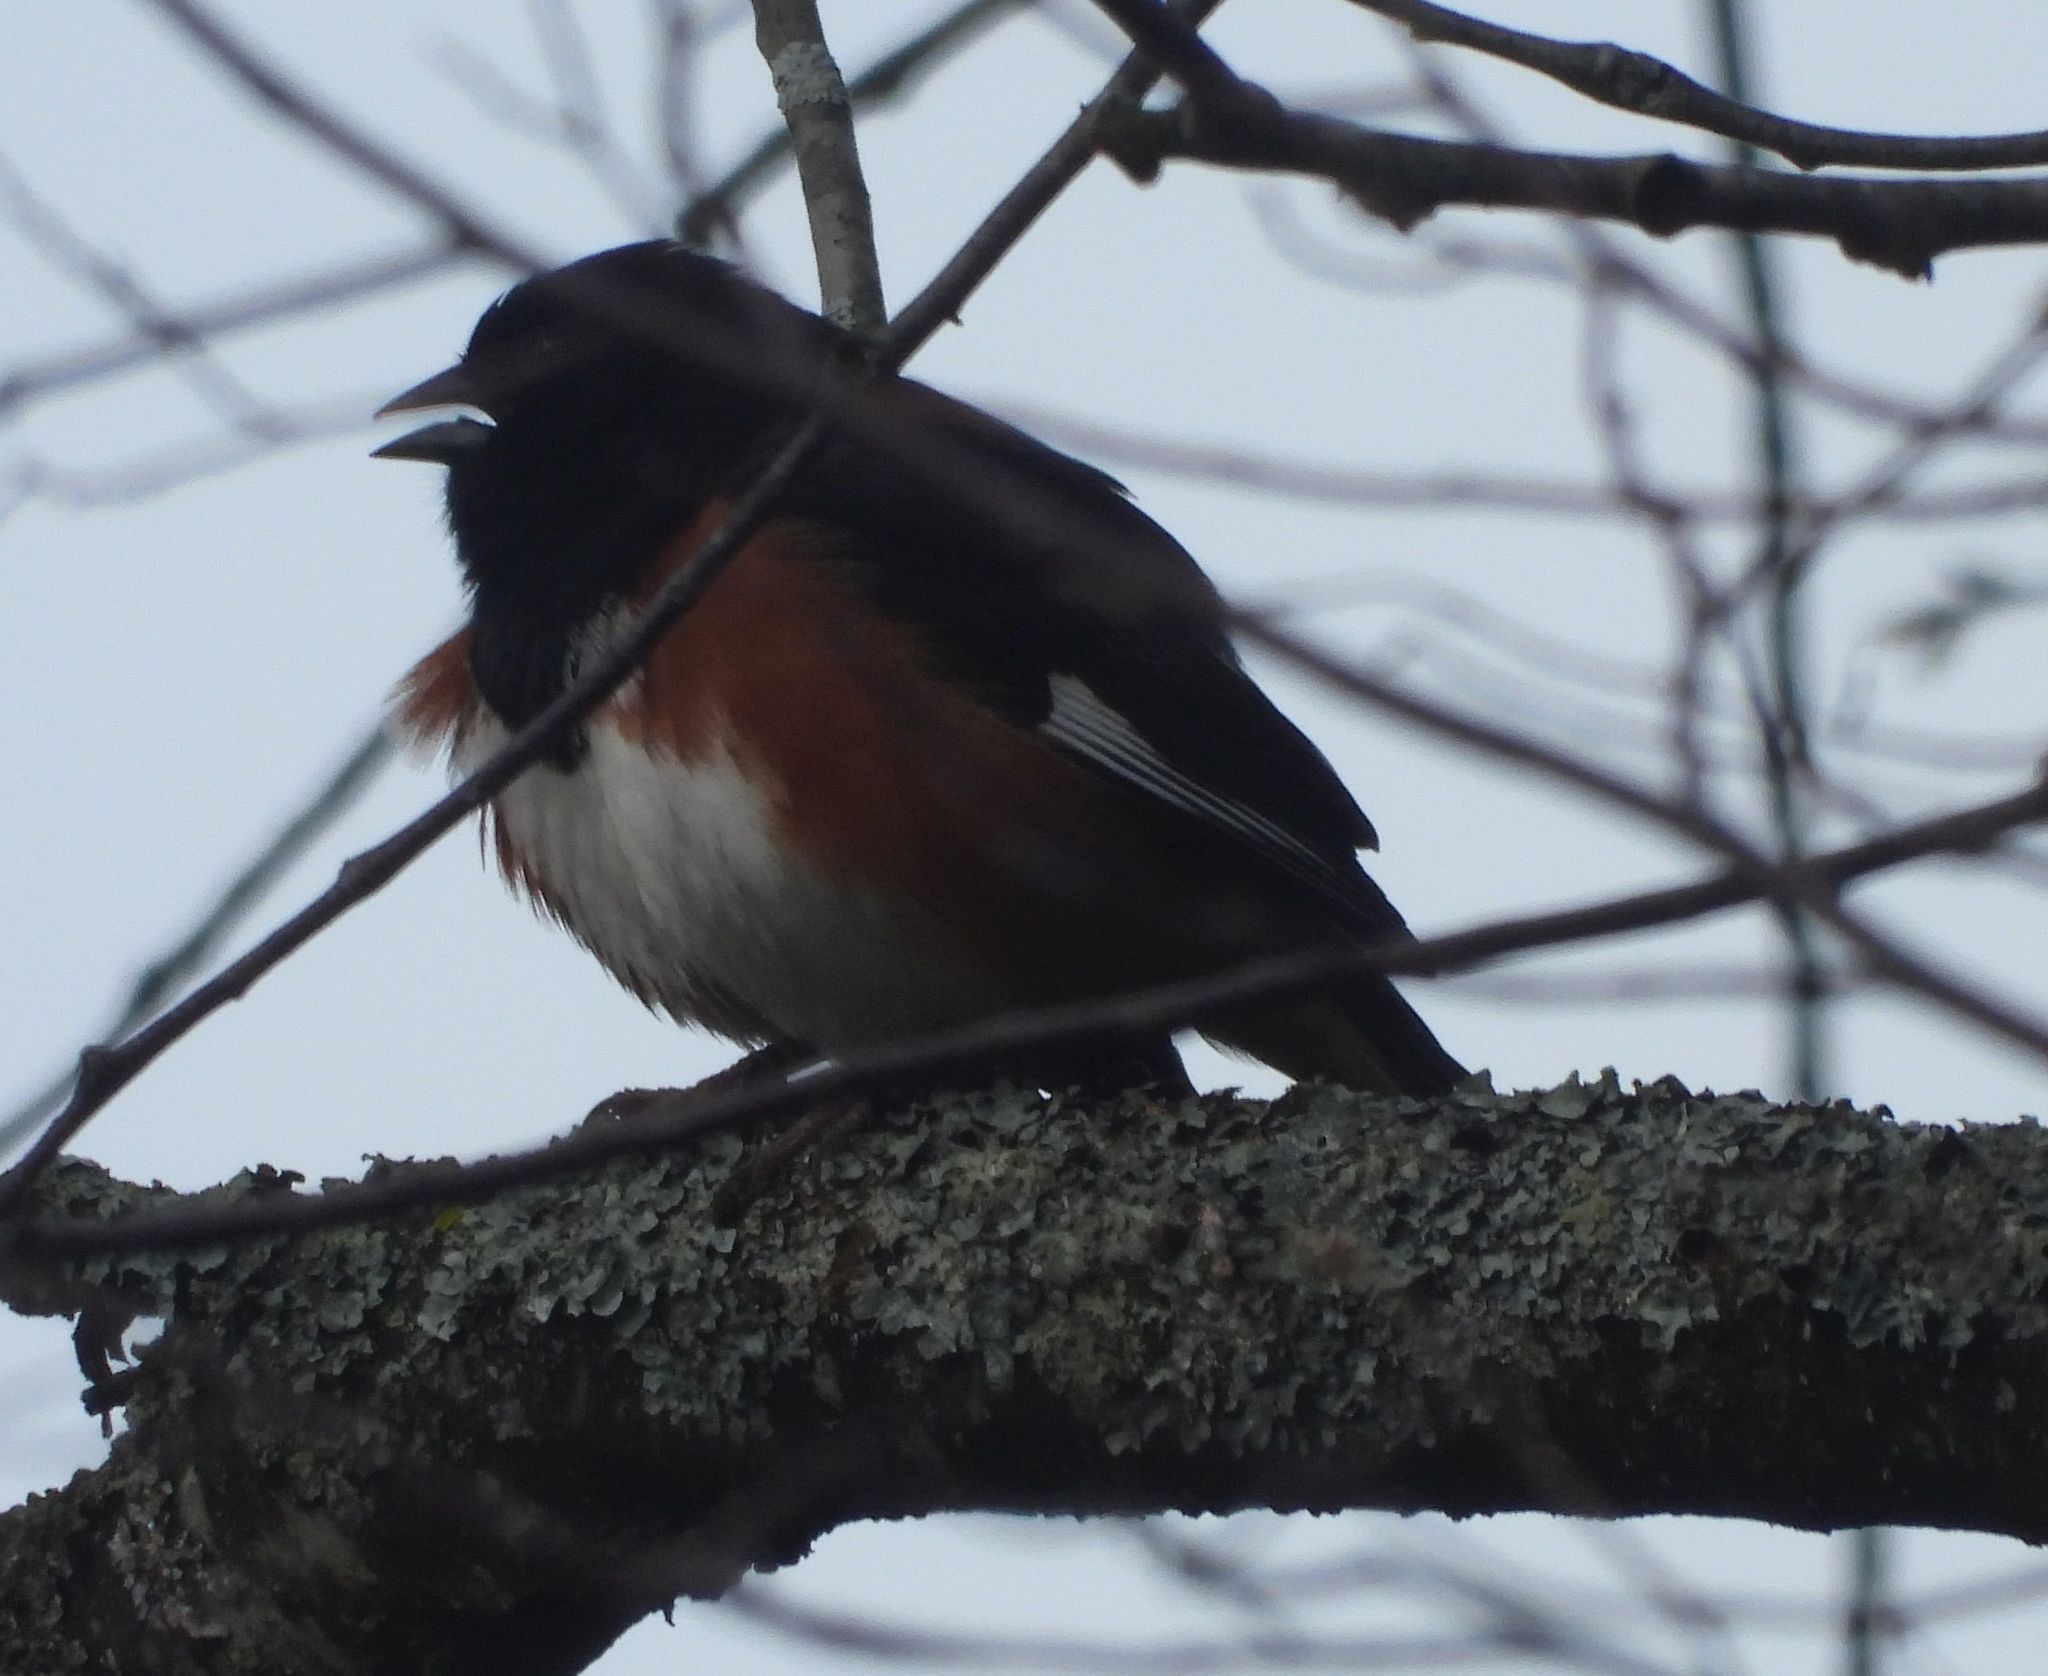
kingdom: Animalia
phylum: Chordata
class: Aves
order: Passeriformes
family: Passerellidae
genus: Pipilo
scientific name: Pipilo erythrophthalmus
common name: Eastern towhee
